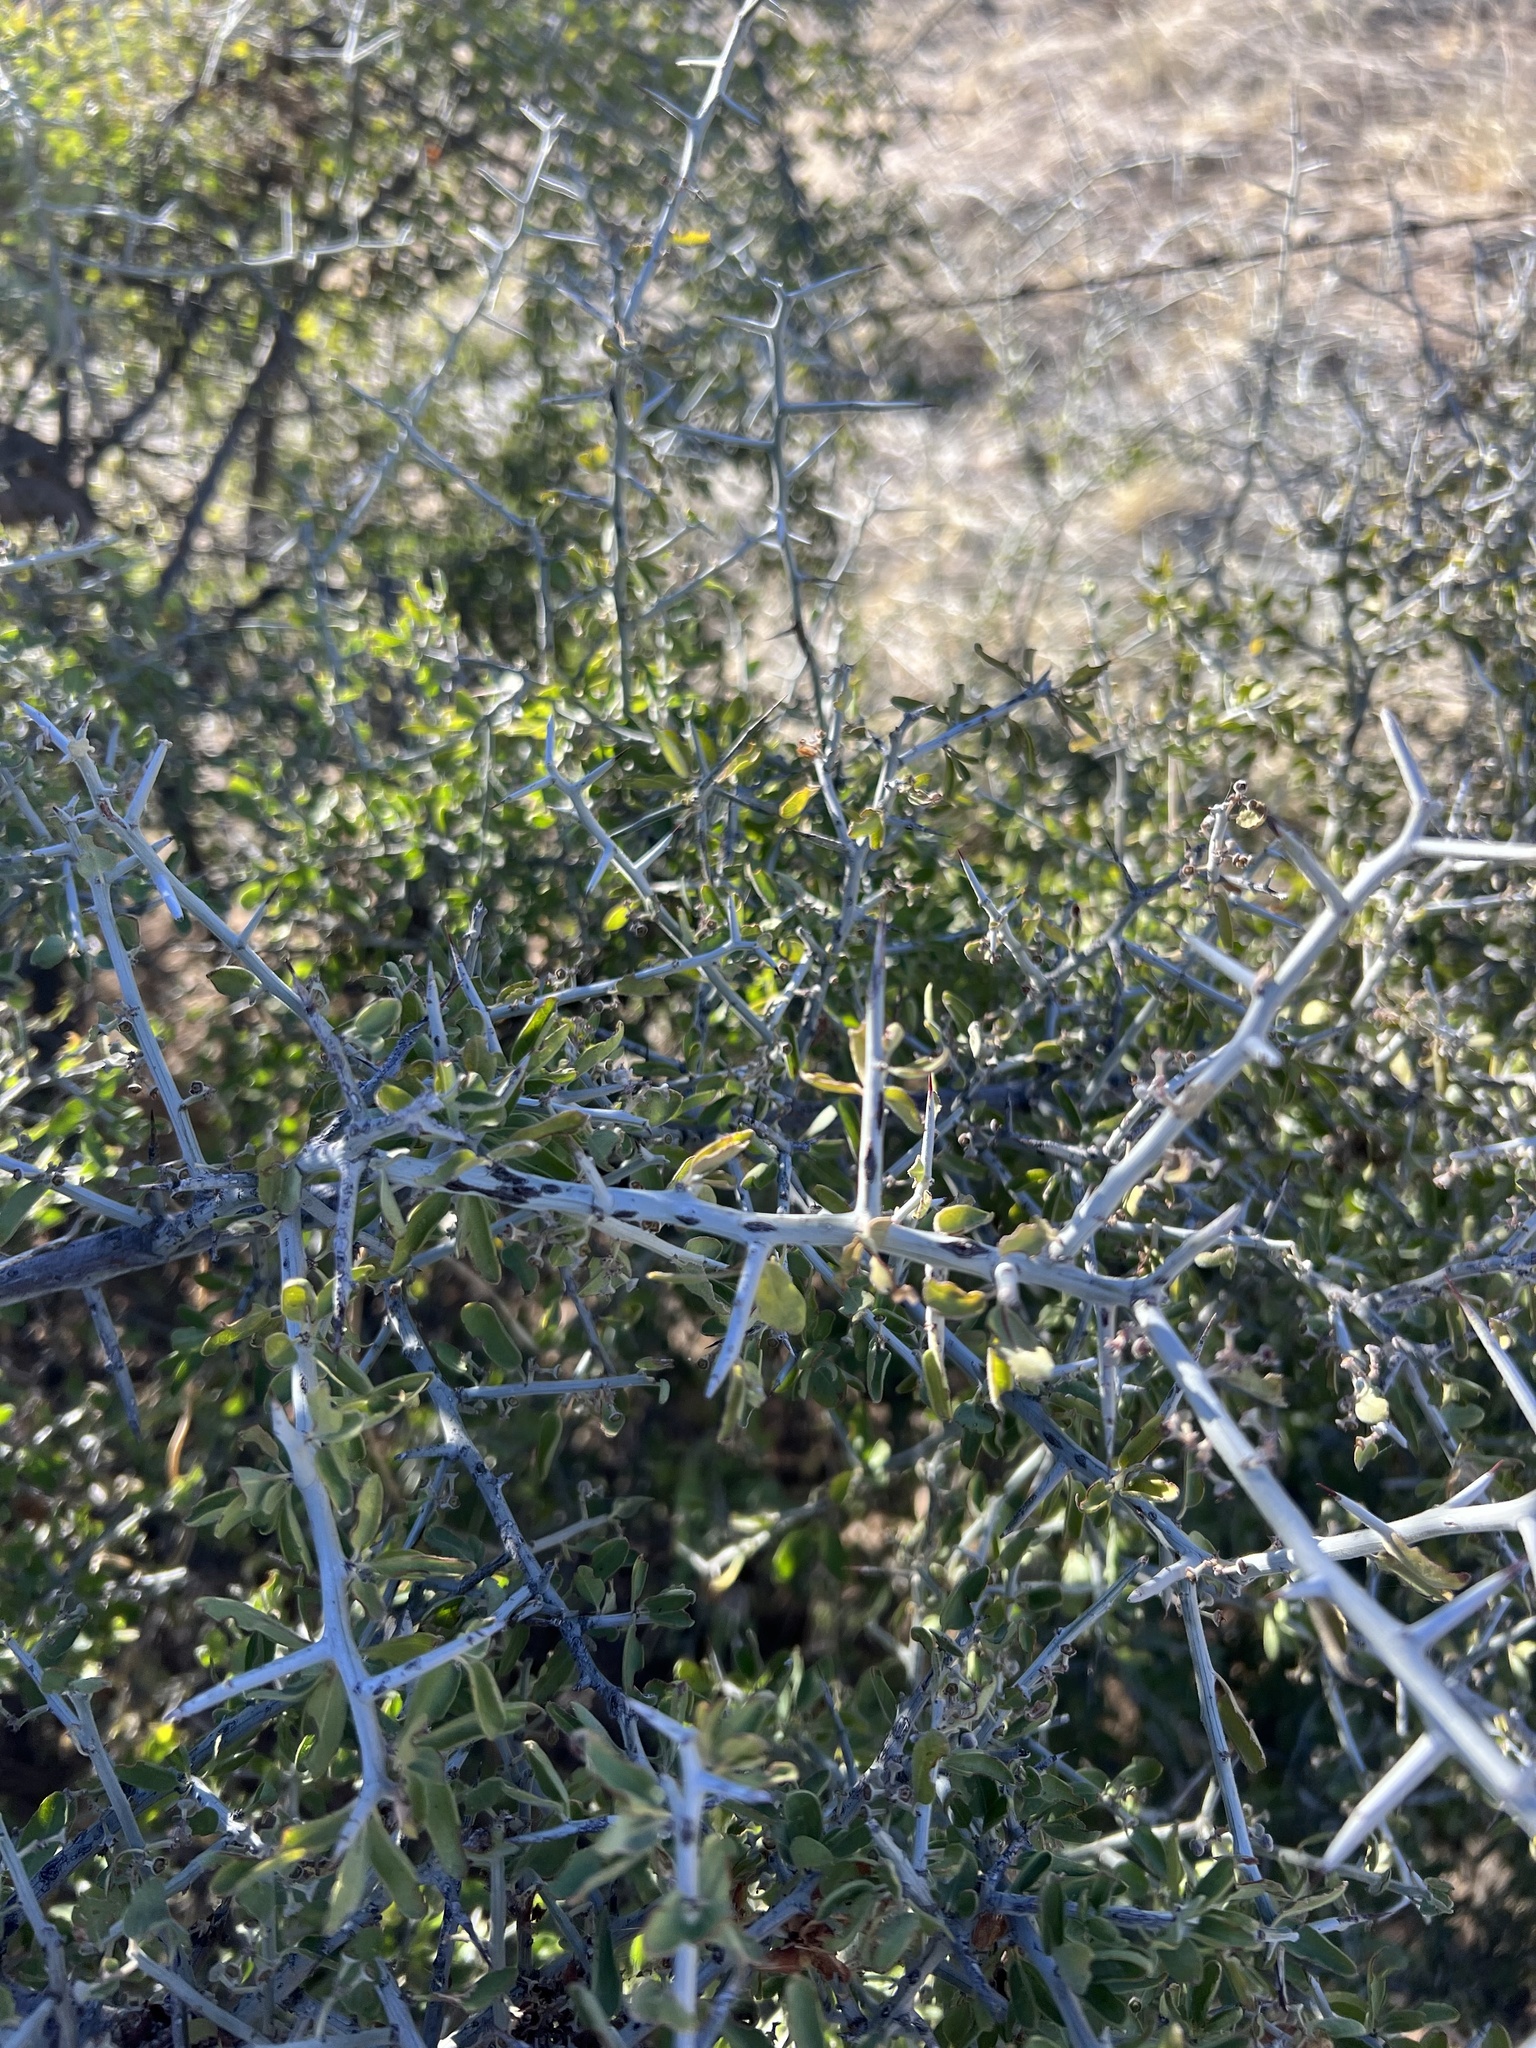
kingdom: Plantae
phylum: Tracheophyta
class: Magnoliopsida
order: Rosales
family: Rhamnaceae
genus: Sarcomphalus
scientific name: Sarcomphalus obtusifolius
